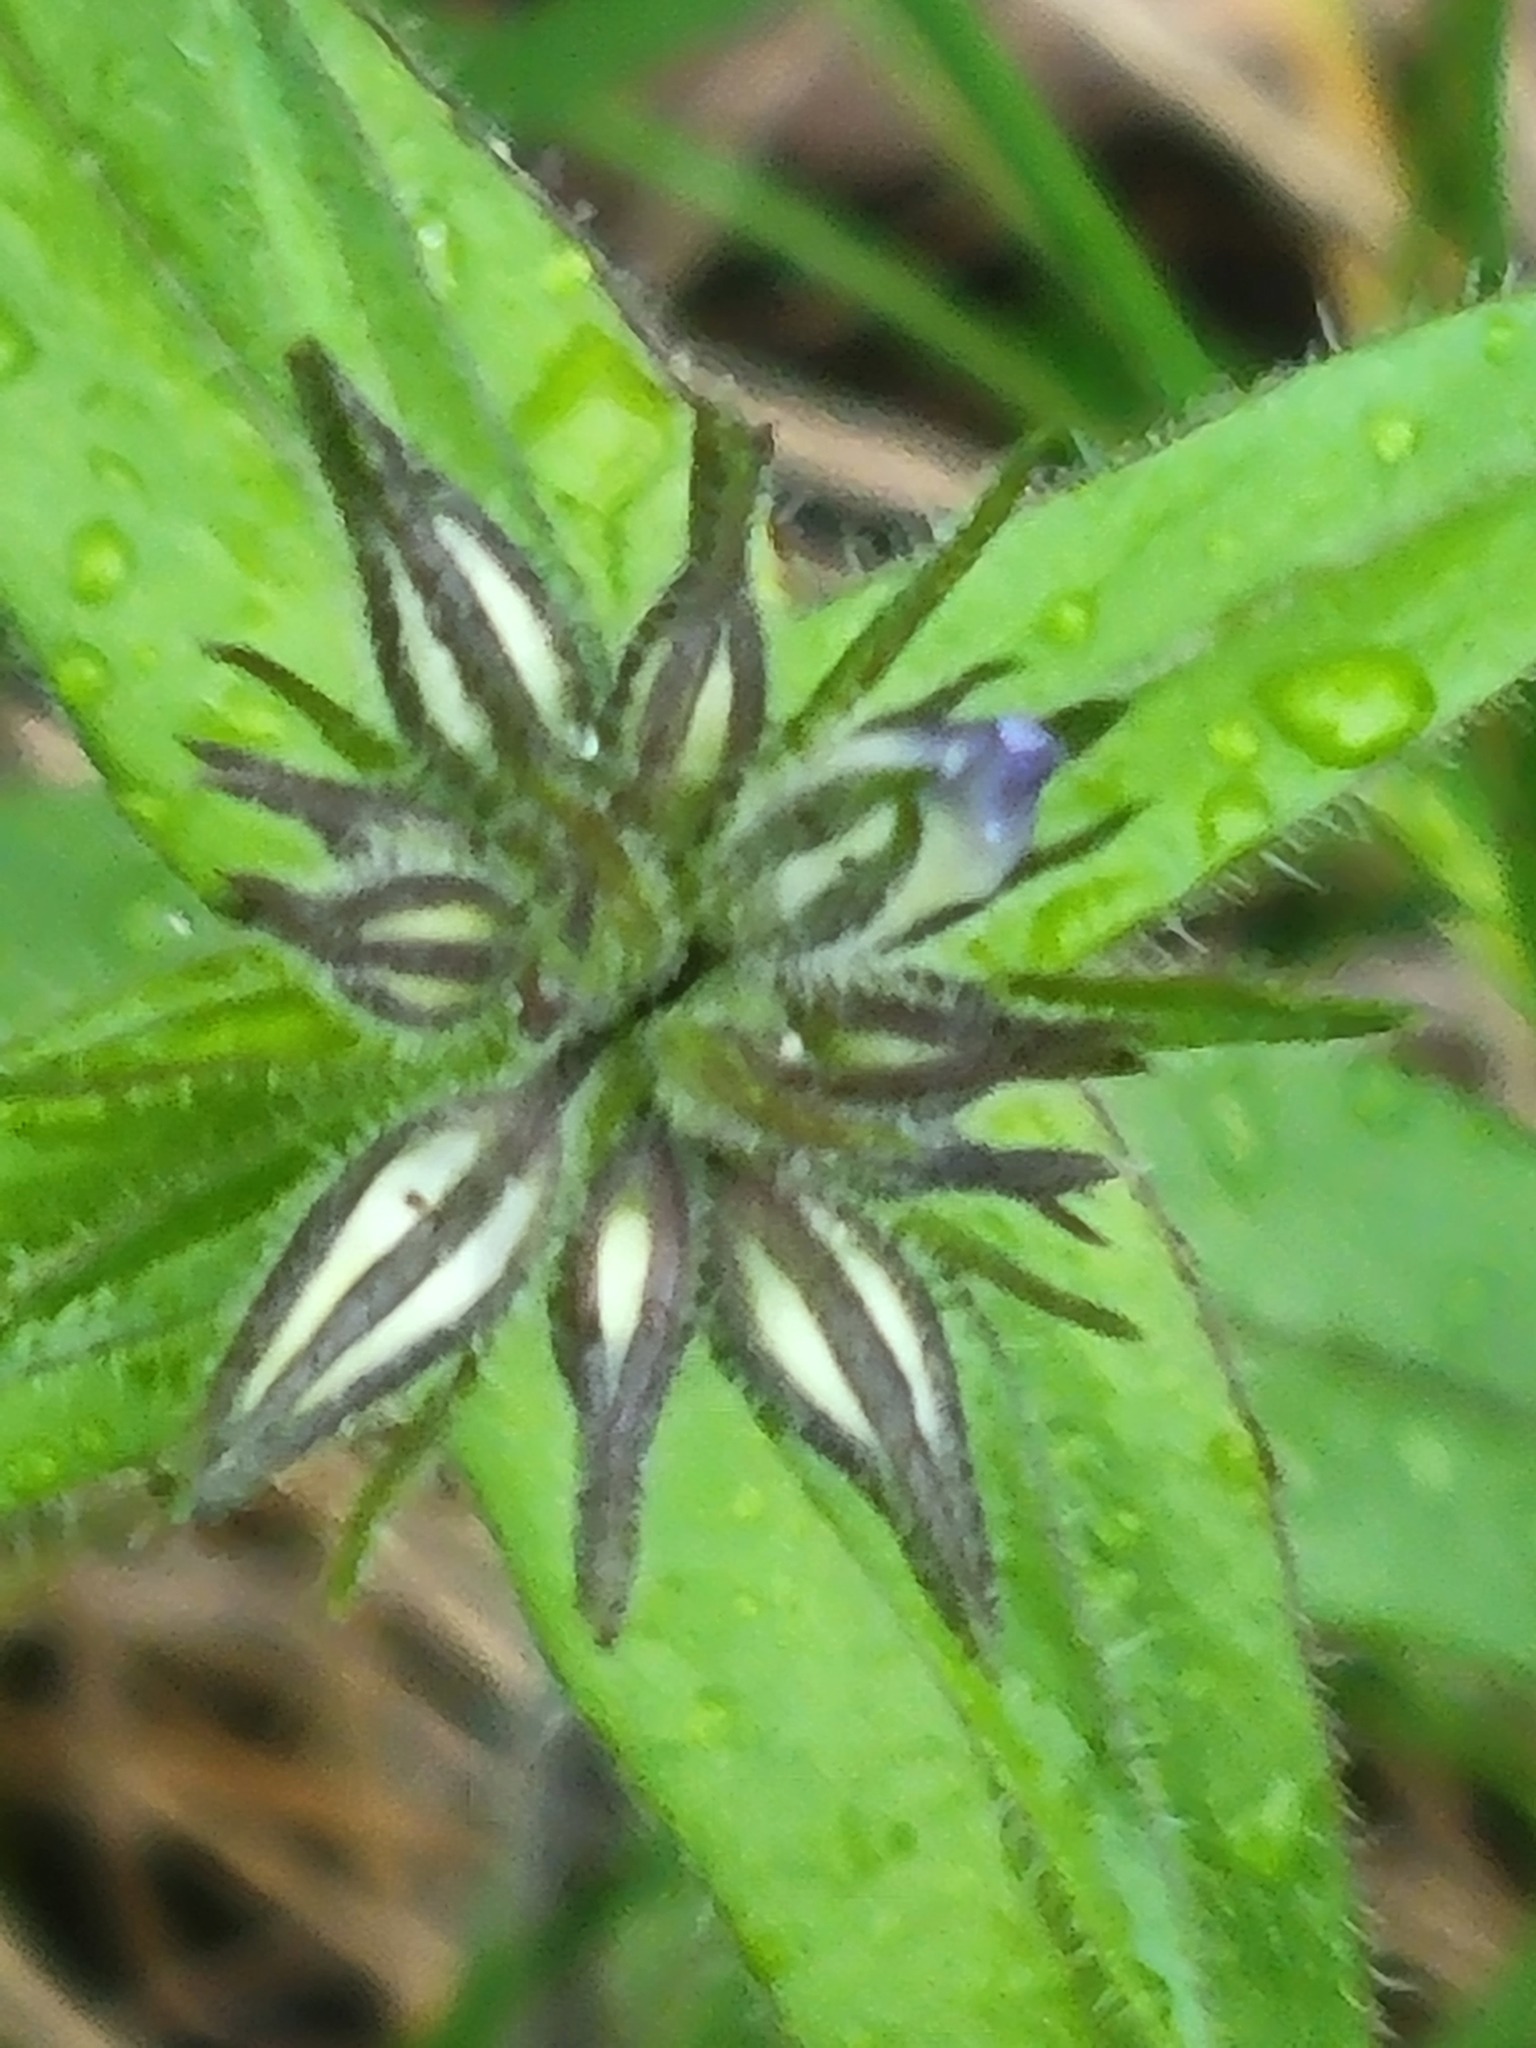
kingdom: Plantae
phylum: Tracheophyta
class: Magnoliopsida
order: Ericales
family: Polemoniaceae
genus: Phlox
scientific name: Phlox divaricata
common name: Blue phlox
